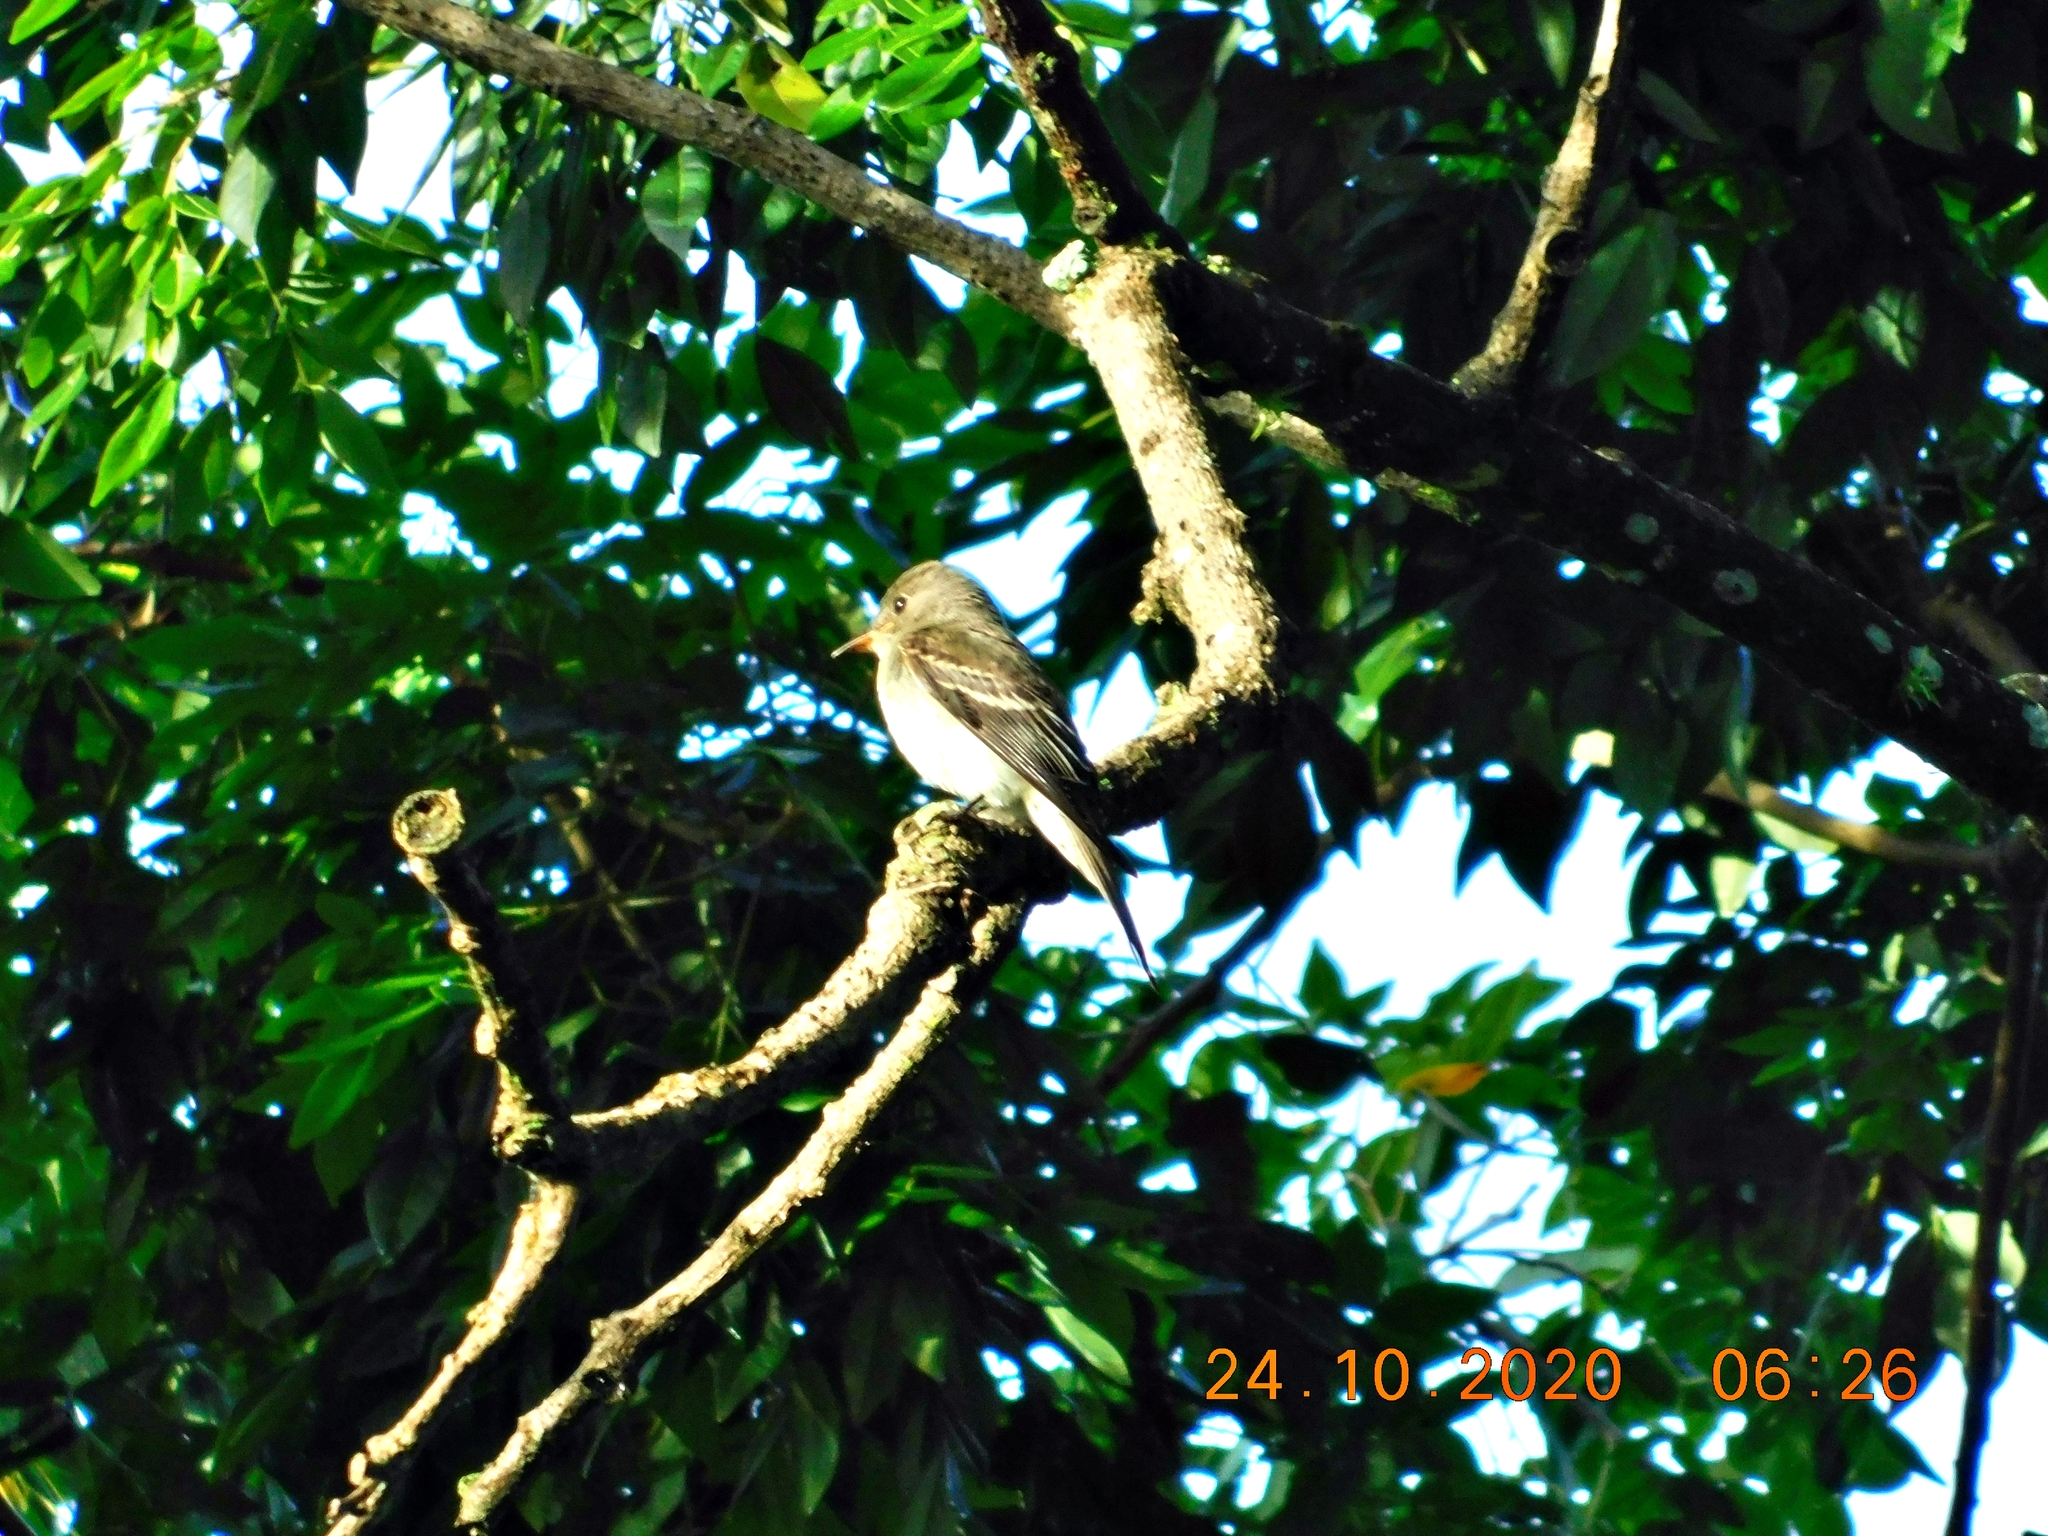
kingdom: Animalia
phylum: Chordata
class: Aves
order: Passeriformes
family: Tyrannidae
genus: Contopus
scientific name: Contopus virens
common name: Eastern wood-pewee
